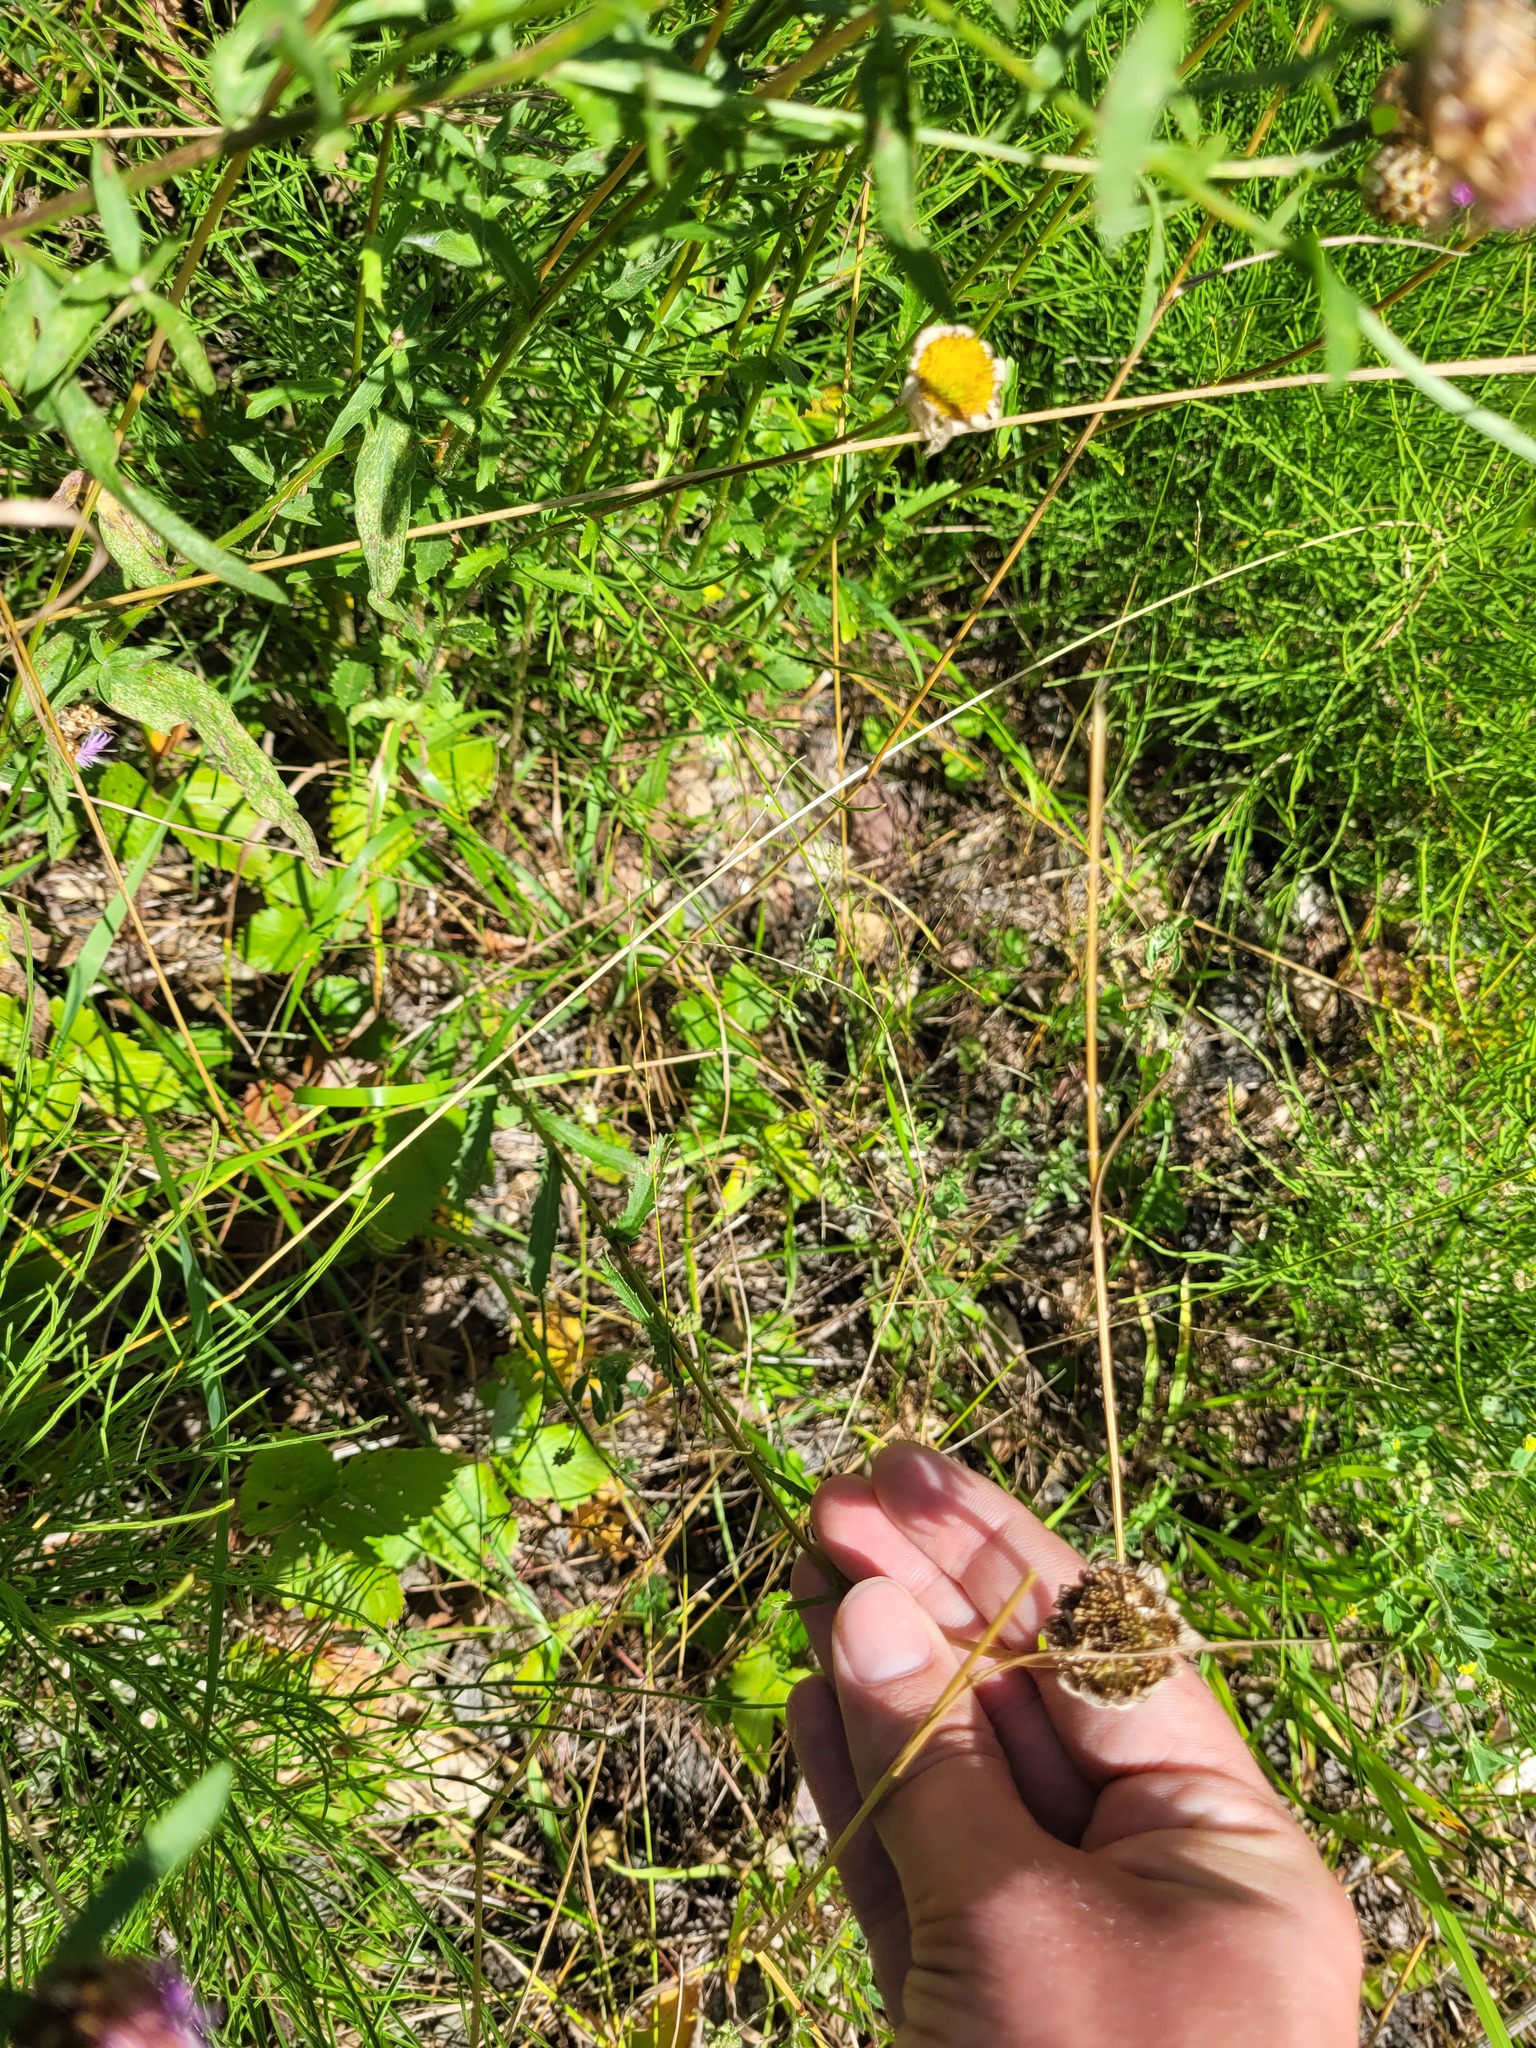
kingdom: Plantae
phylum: Tracheophyta
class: Magnoliopsida
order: Asterales
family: Asteraceae
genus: Leucanthemum
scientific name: Leucanthemum vulgare
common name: Oxeye daisy
